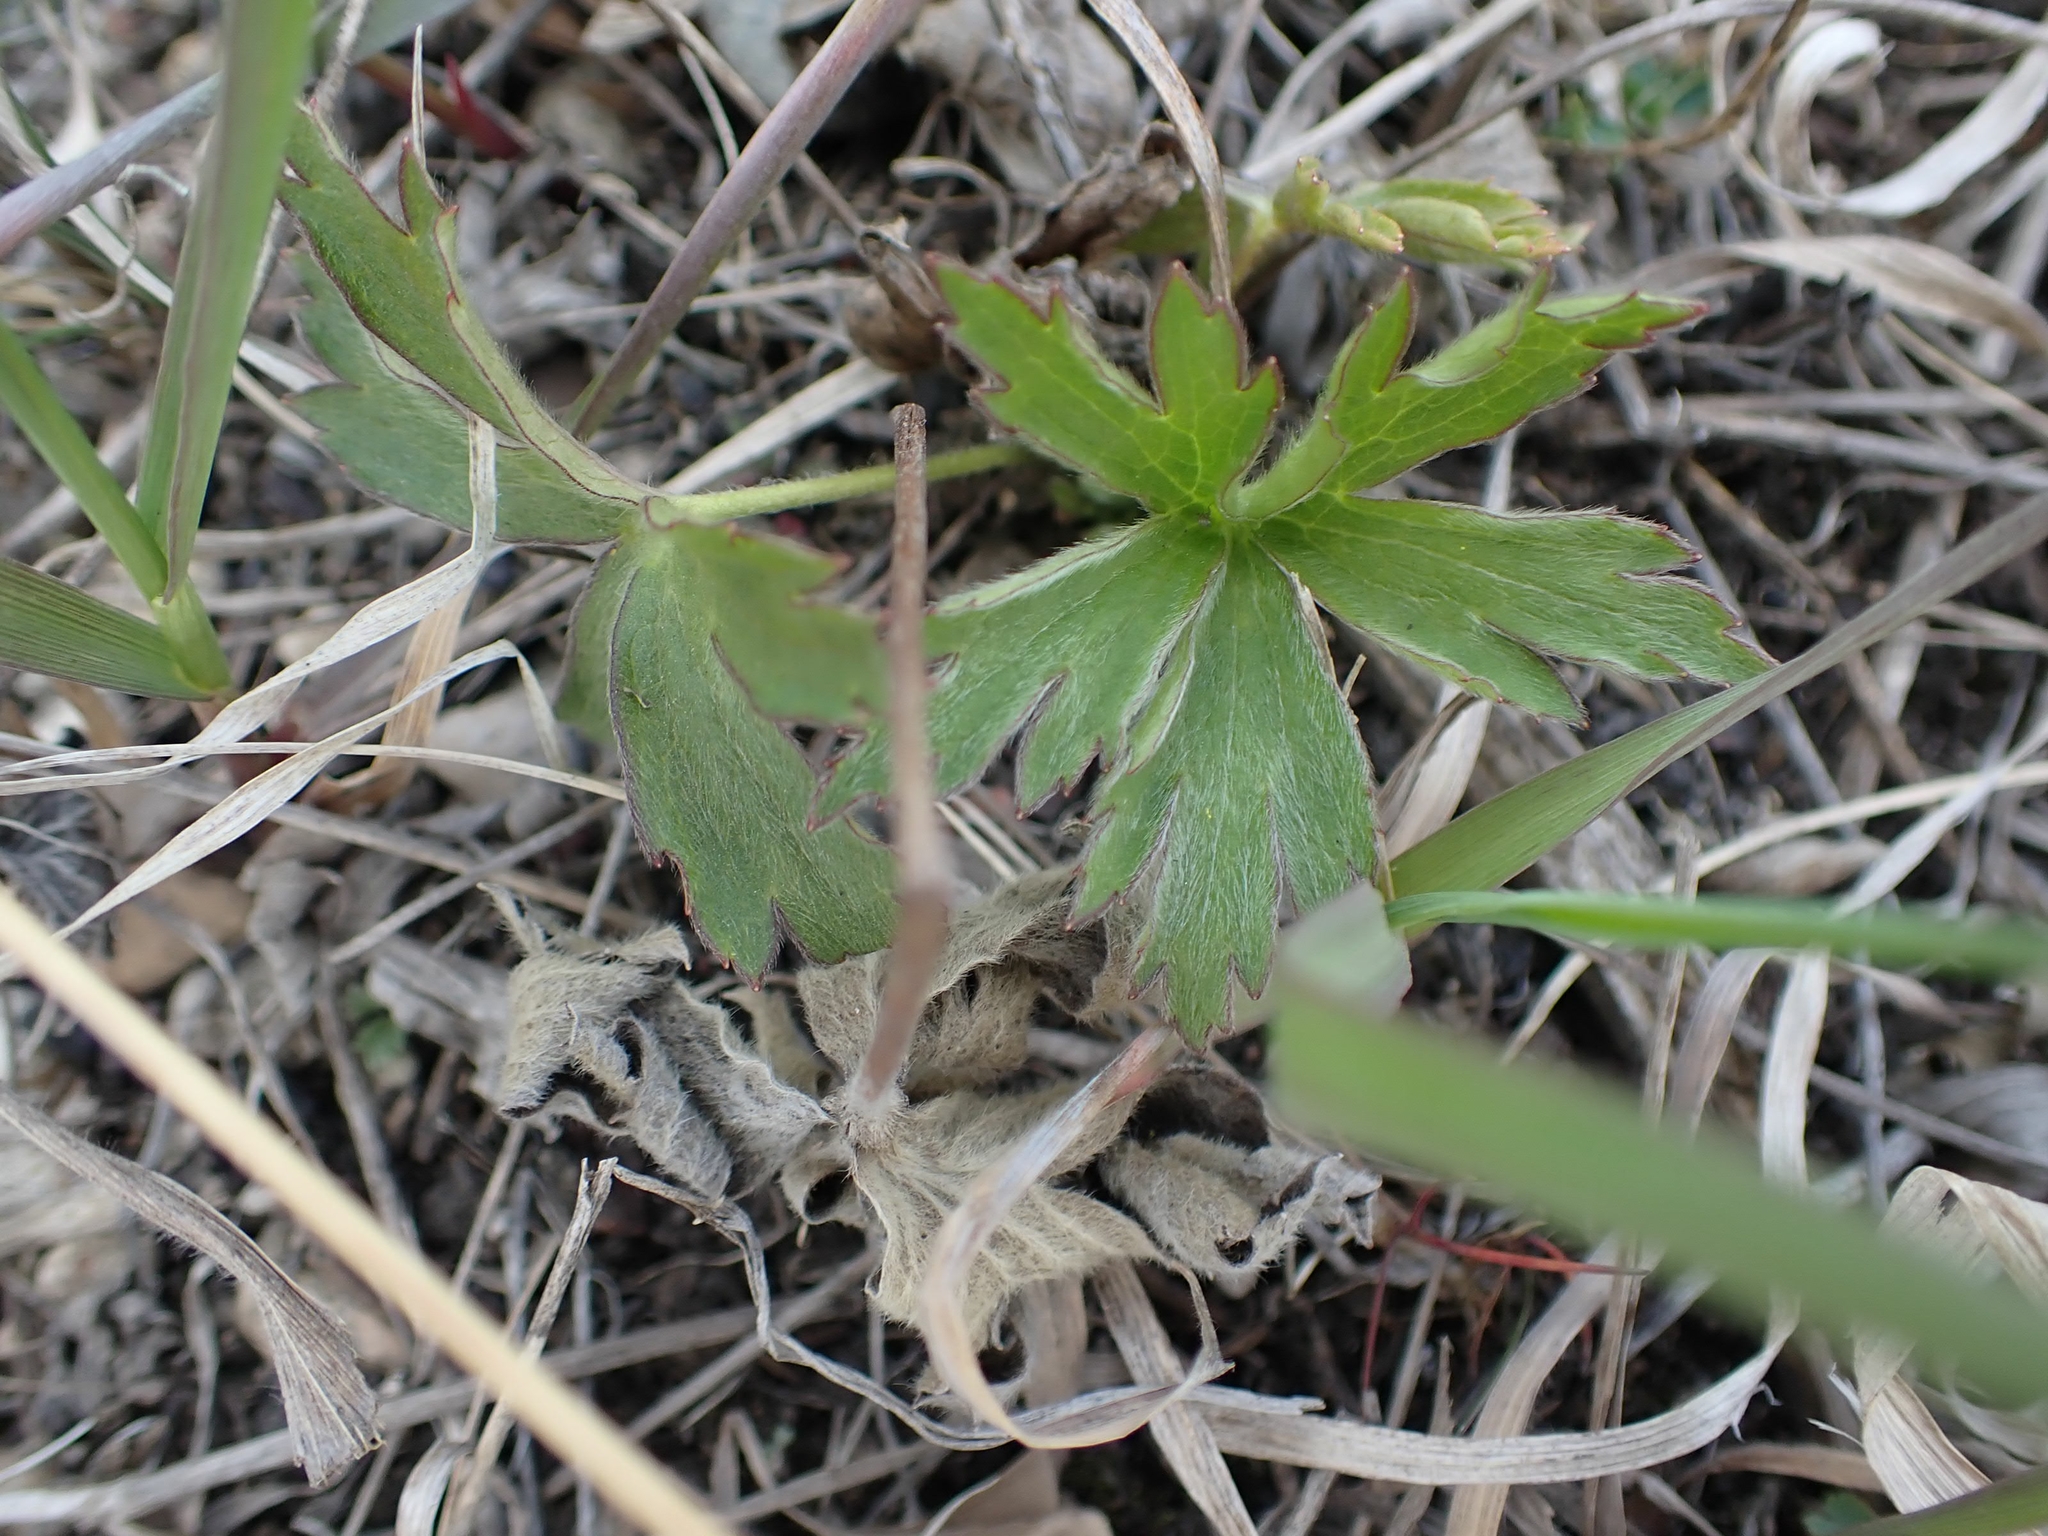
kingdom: Plantae
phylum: Tracheophyta
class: Magnoliopsida
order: Ranunculales
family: Ranunculaceae
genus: Anemone
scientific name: Anemone cylindrica
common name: Candle anemone
